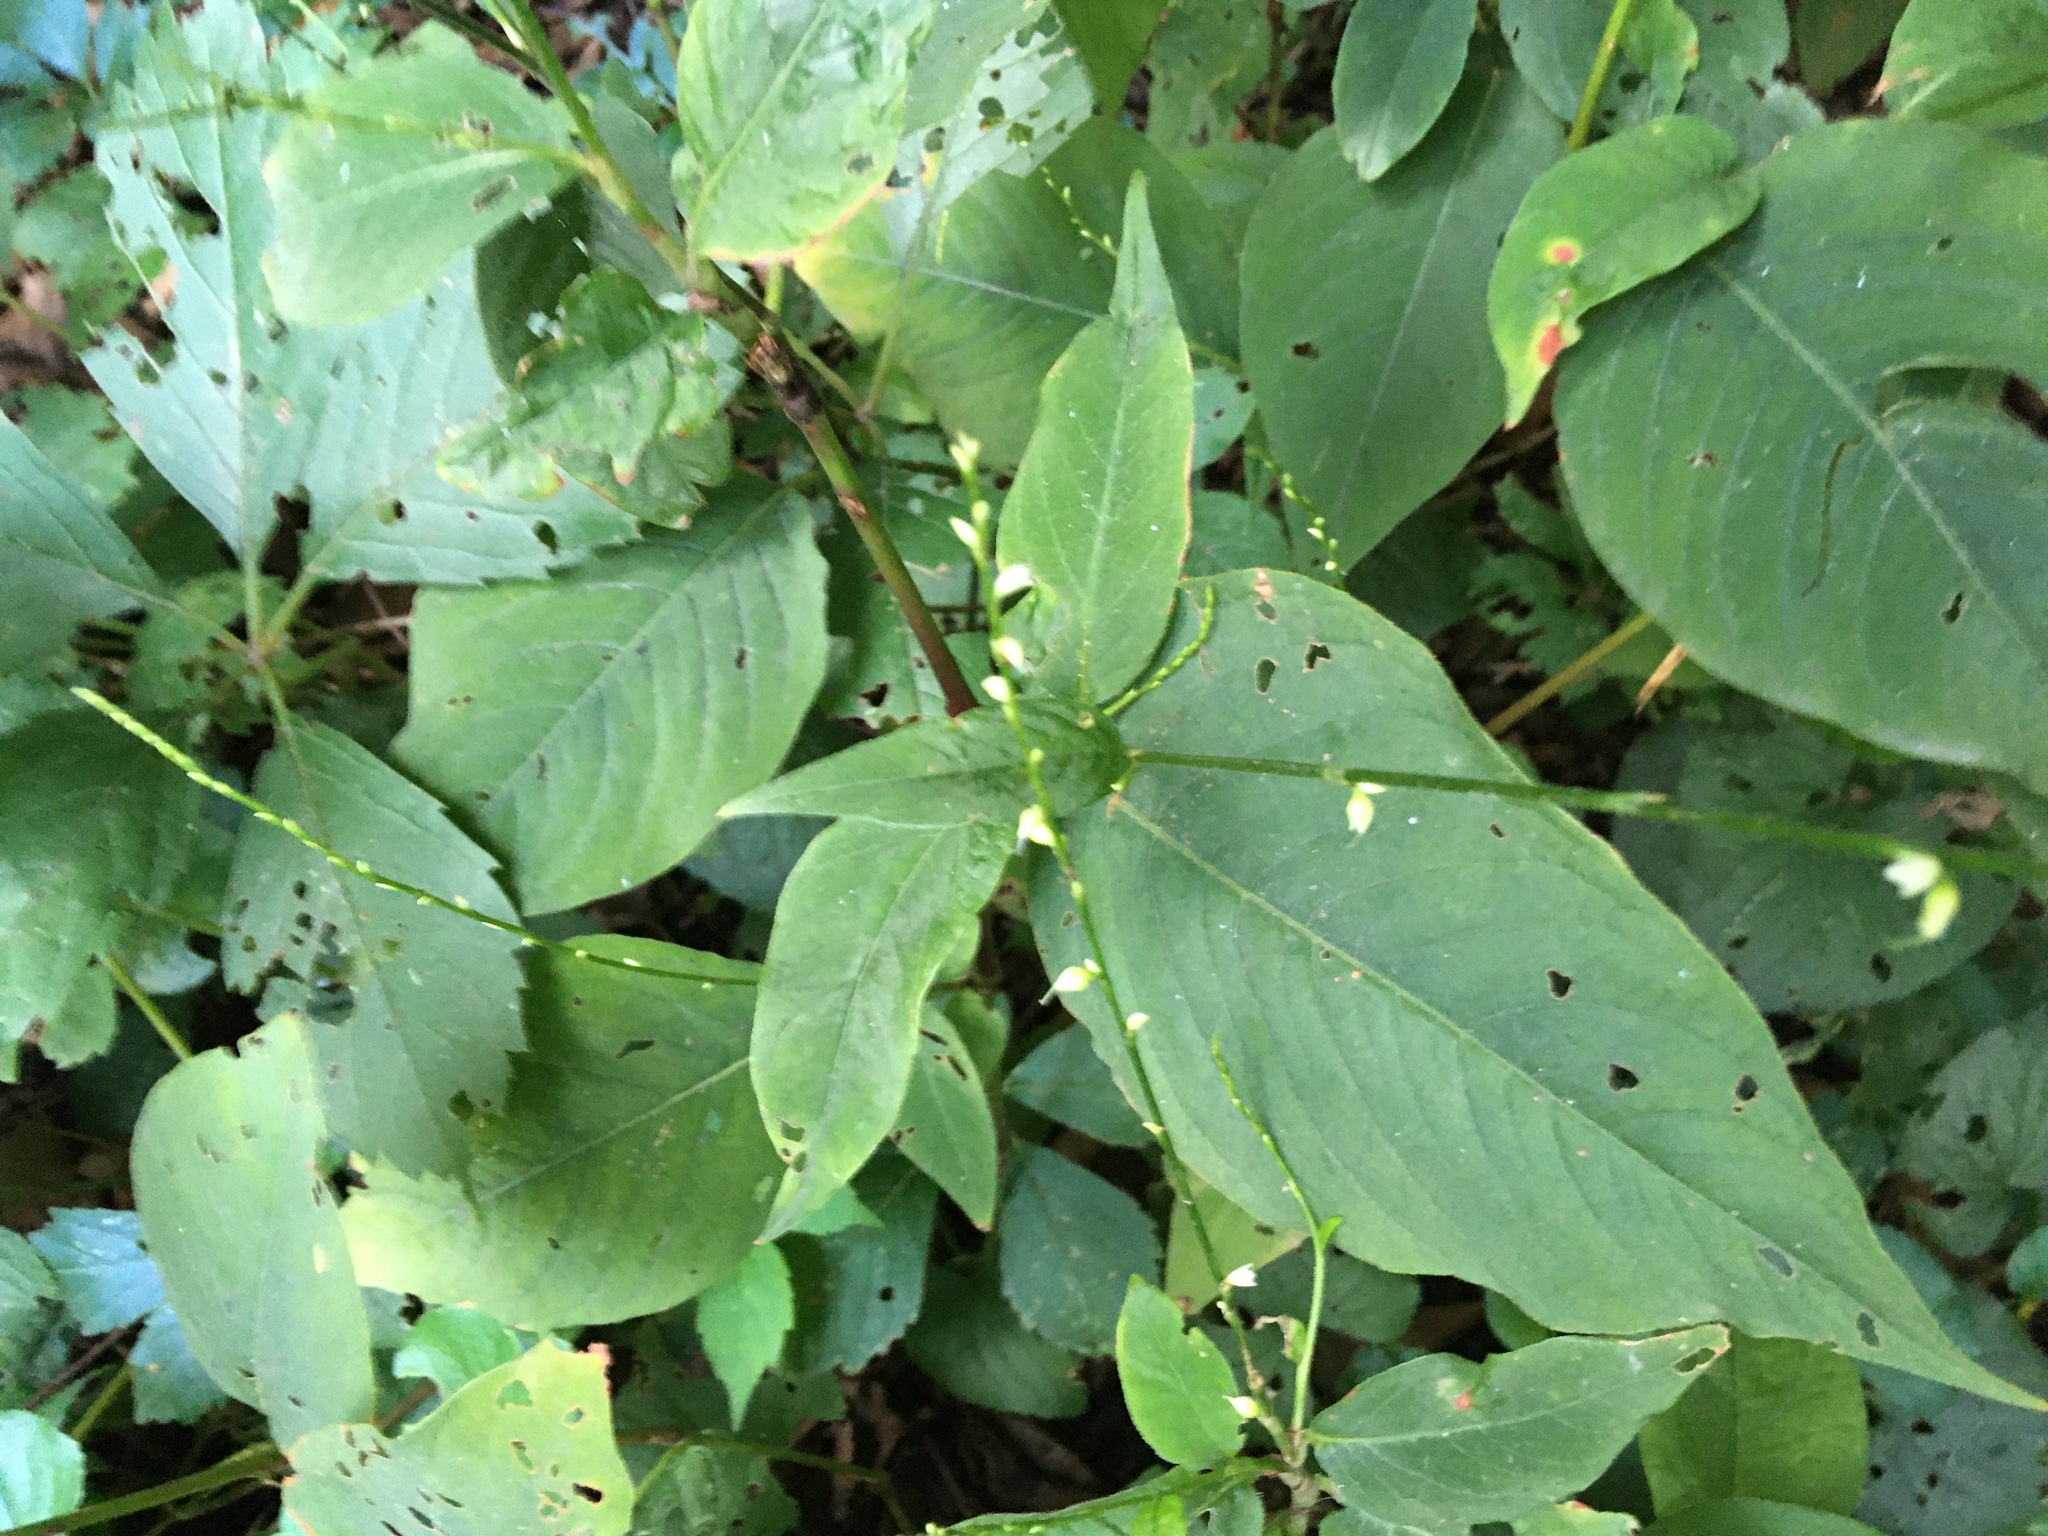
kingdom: Plantae
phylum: Tracheophyta
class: Magnoliopsida
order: Caryophyllales
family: Polygonaceae
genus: Persicaria
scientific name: Persicaria virginiana
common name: Jumpseed
